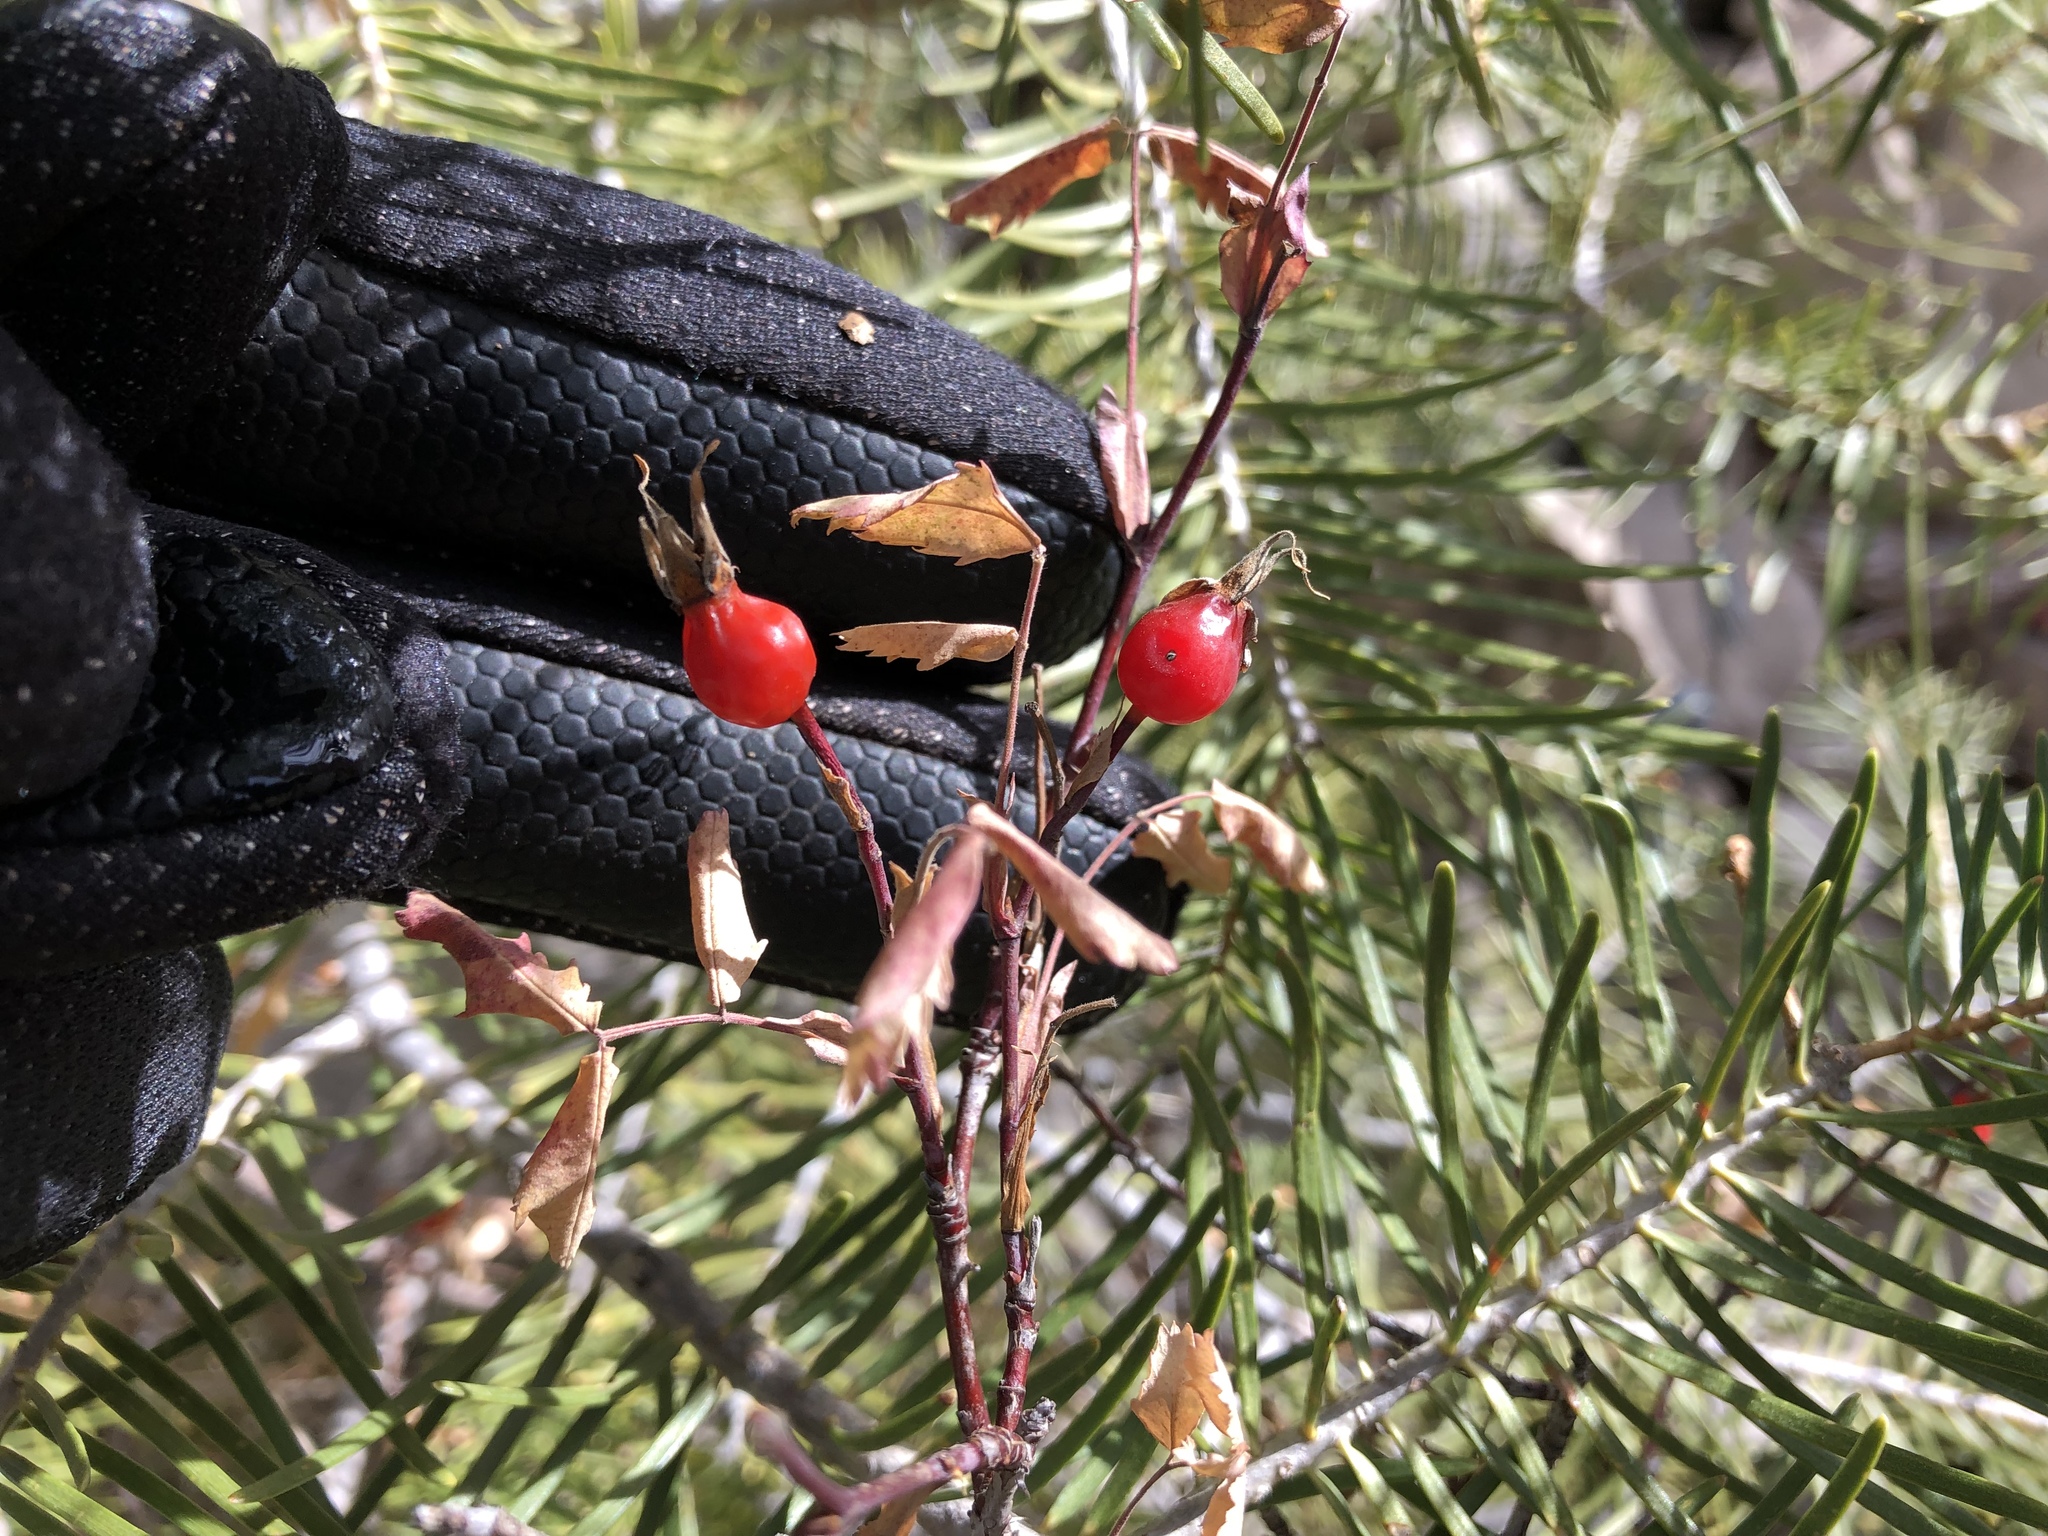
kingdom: Plantae
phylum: Tracheophyta
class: Magnoliopsida
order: Rosales
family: Rosaceae
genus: Rosa
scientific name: Rosa woodsii
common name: Woods's rose
